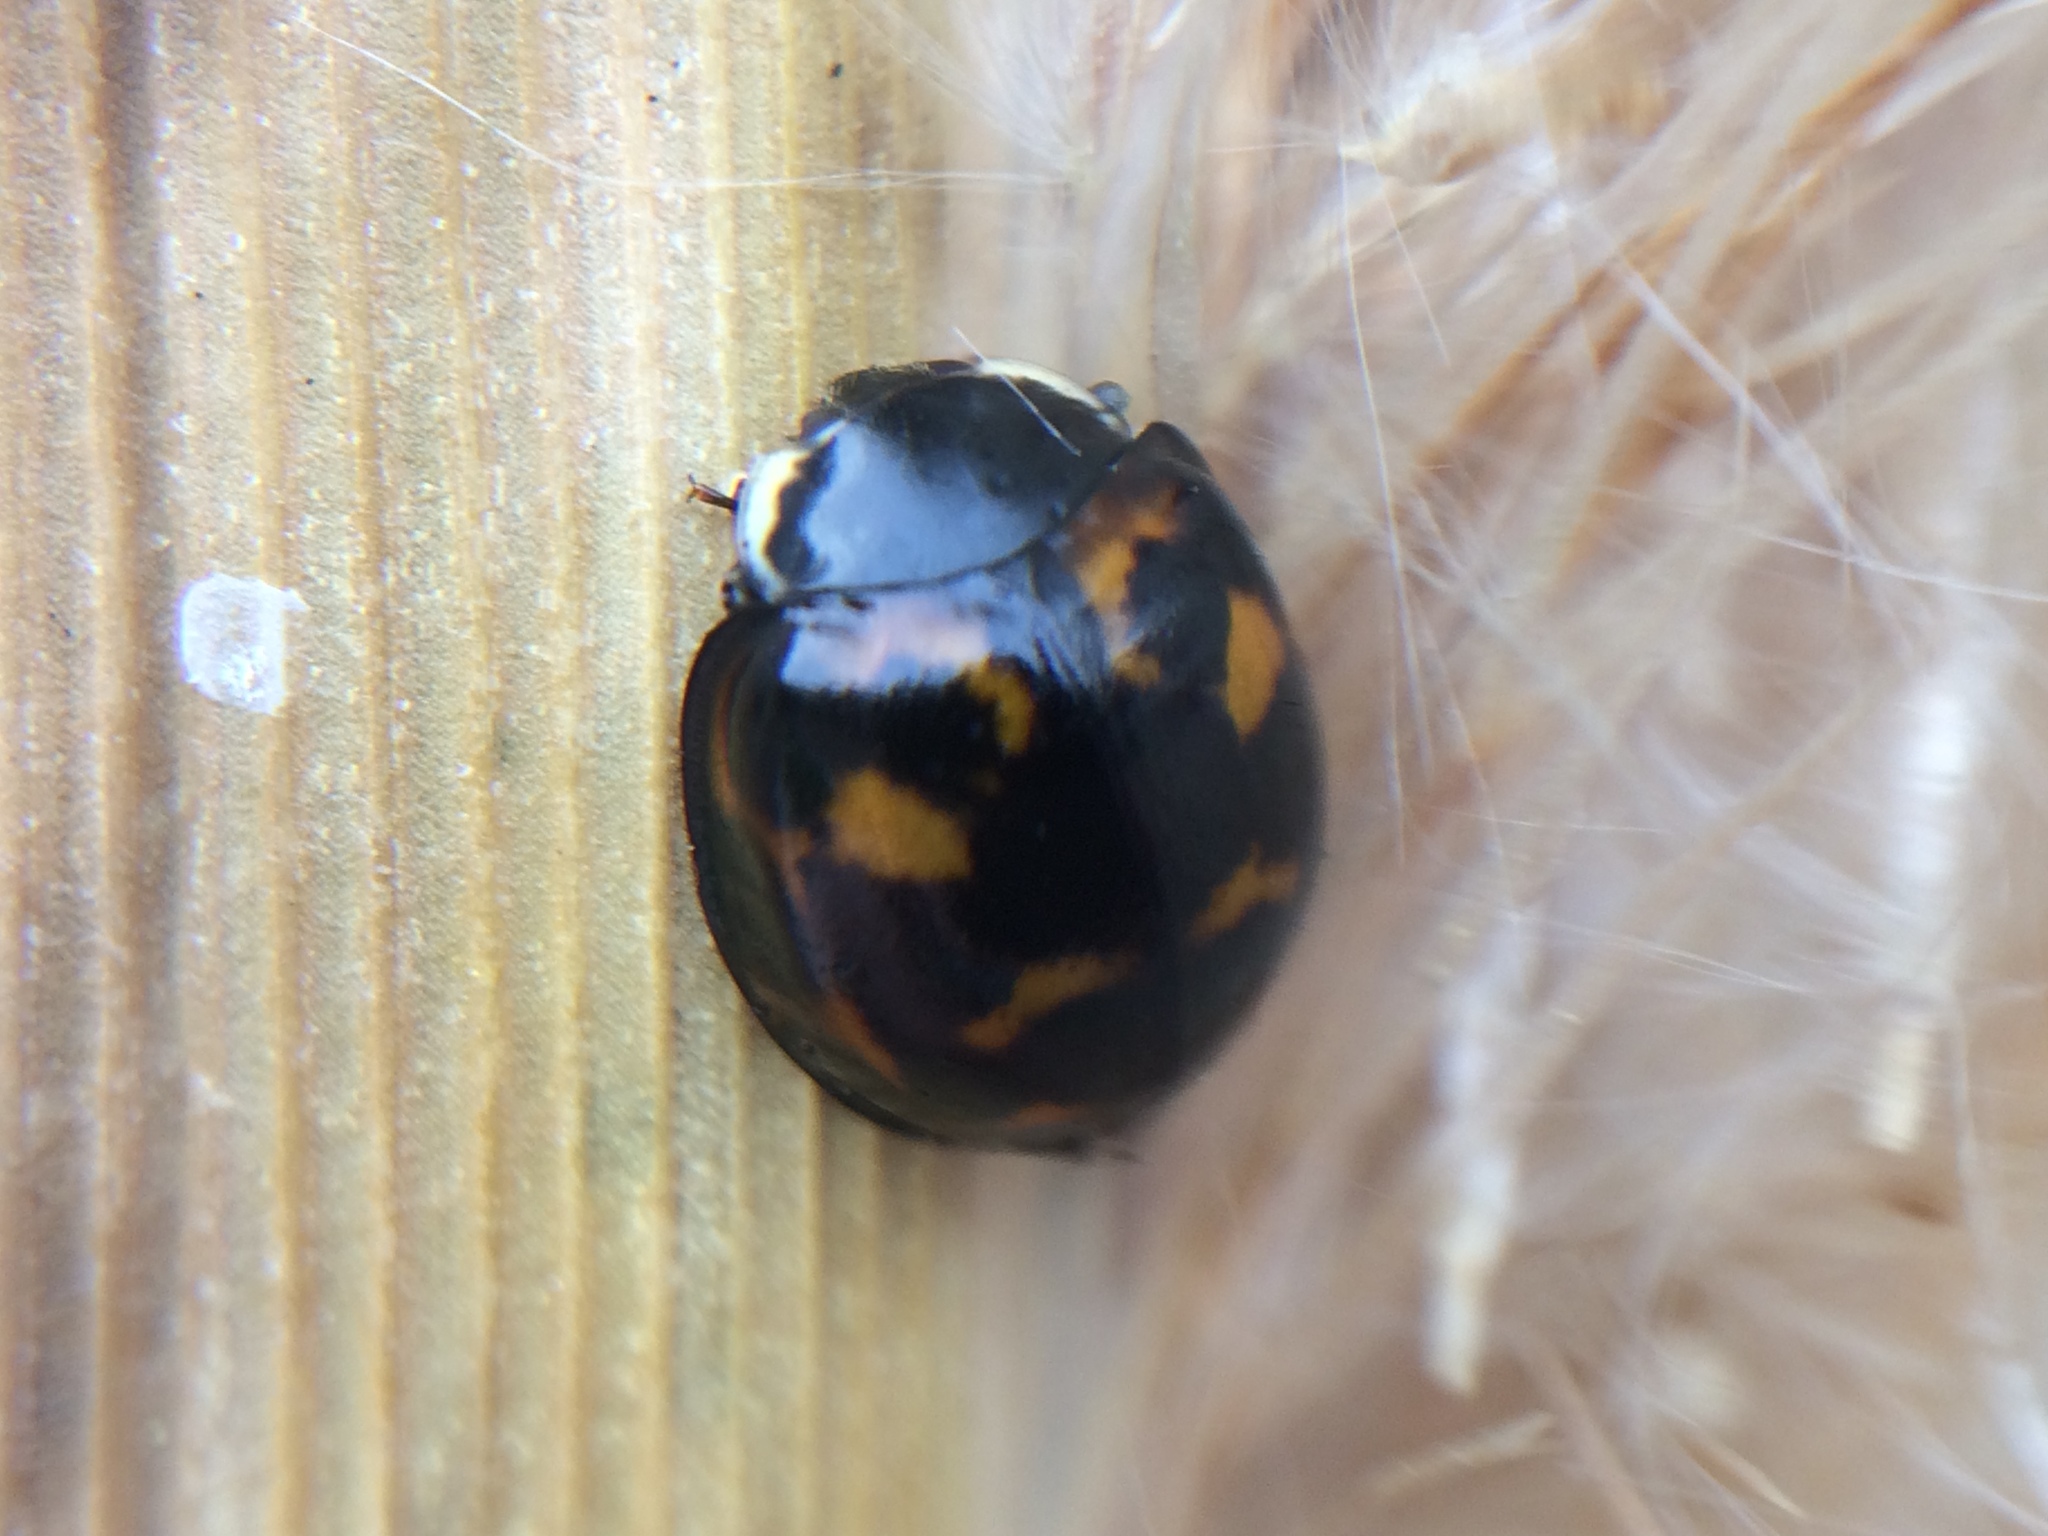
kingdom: Animalia
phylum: Arthropoda
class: Insecta
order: Coleoptera
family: Coccinellidae
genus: Harmonia
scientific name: Harmonia axyridis
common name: Harlequin ladybird
